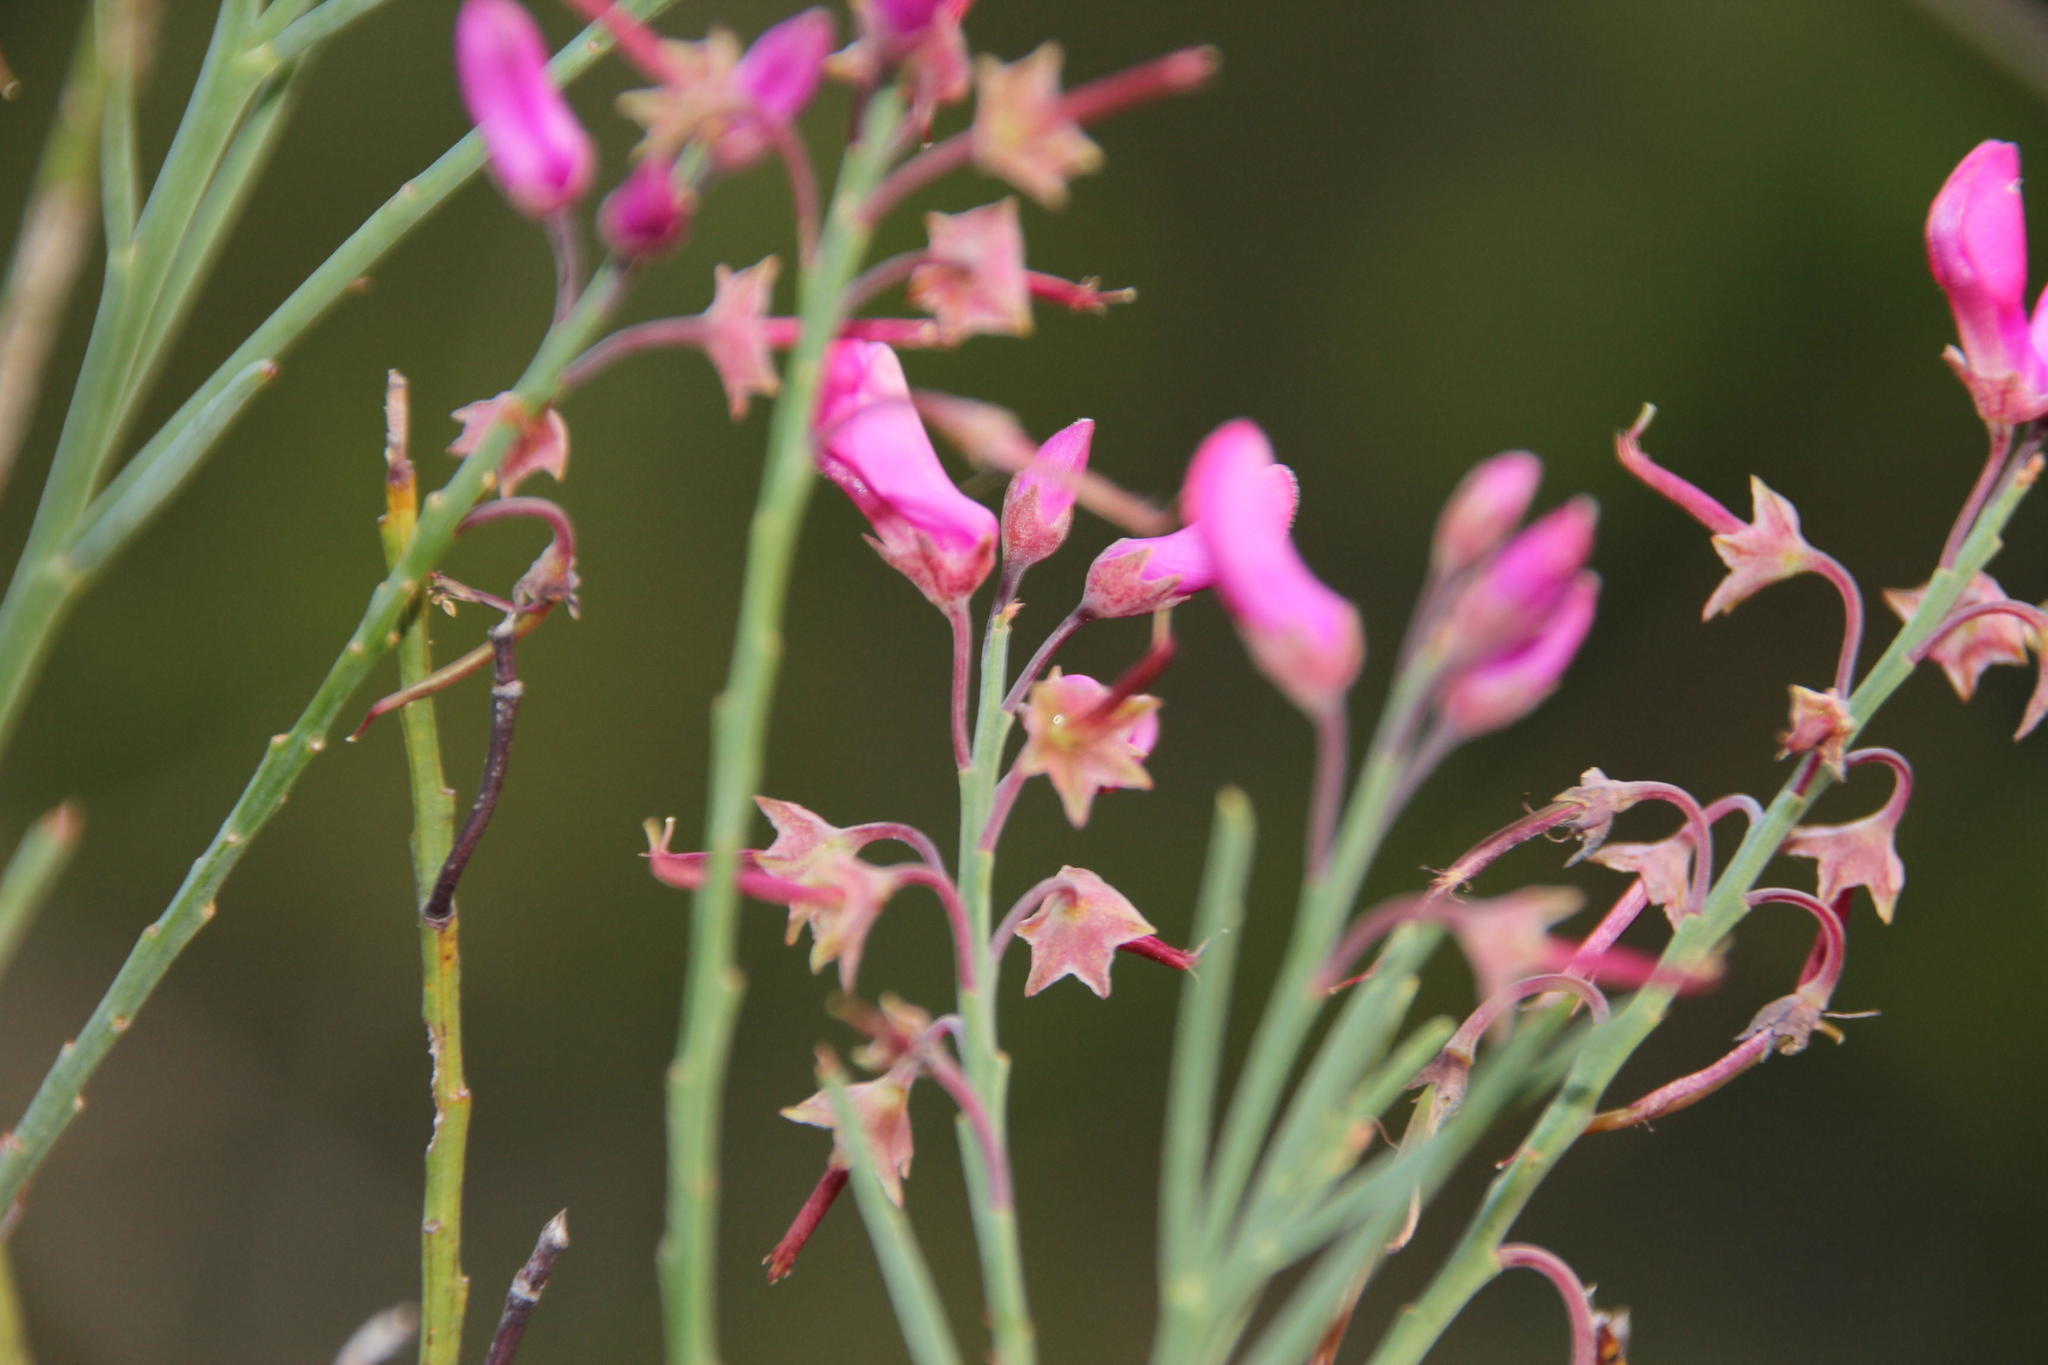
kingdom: Plantae
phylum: Tracheophyta
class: Magnoliopsida
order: Fabales
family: Fabaceae
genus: Indigofera
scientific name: Indigofera filifolia
